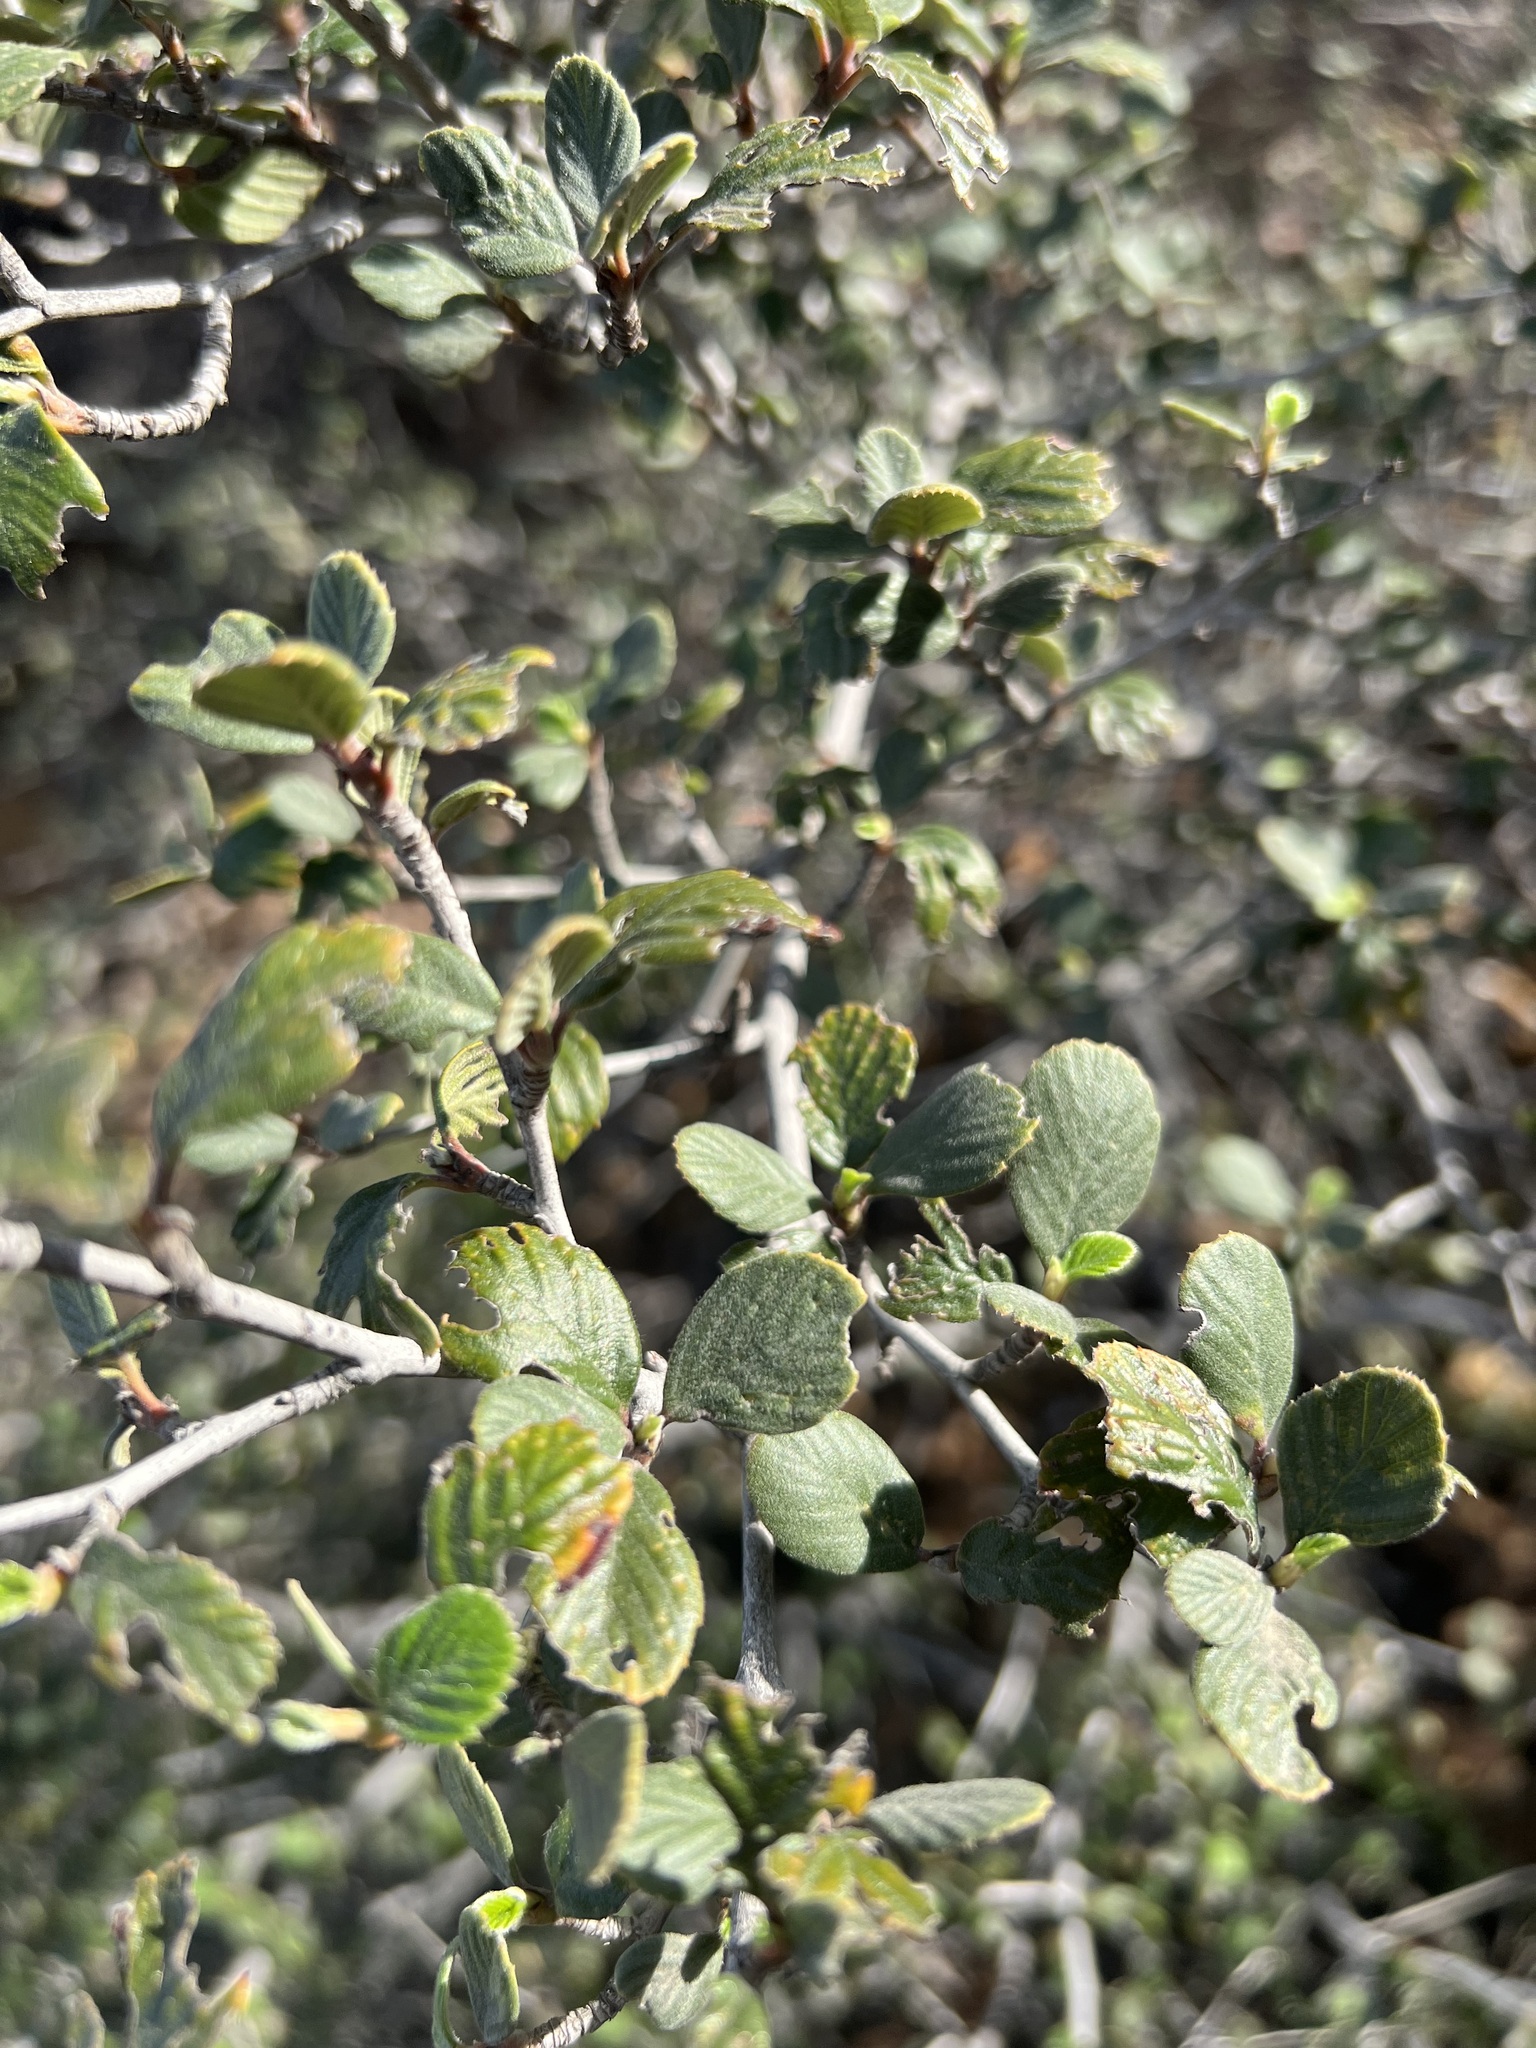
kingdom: Plantae
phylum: Tracheophyta
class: Magnoliopsida
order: Rosales
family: Rosaceae
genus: Cercocarpus
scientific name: Cercocarpus betuloides
